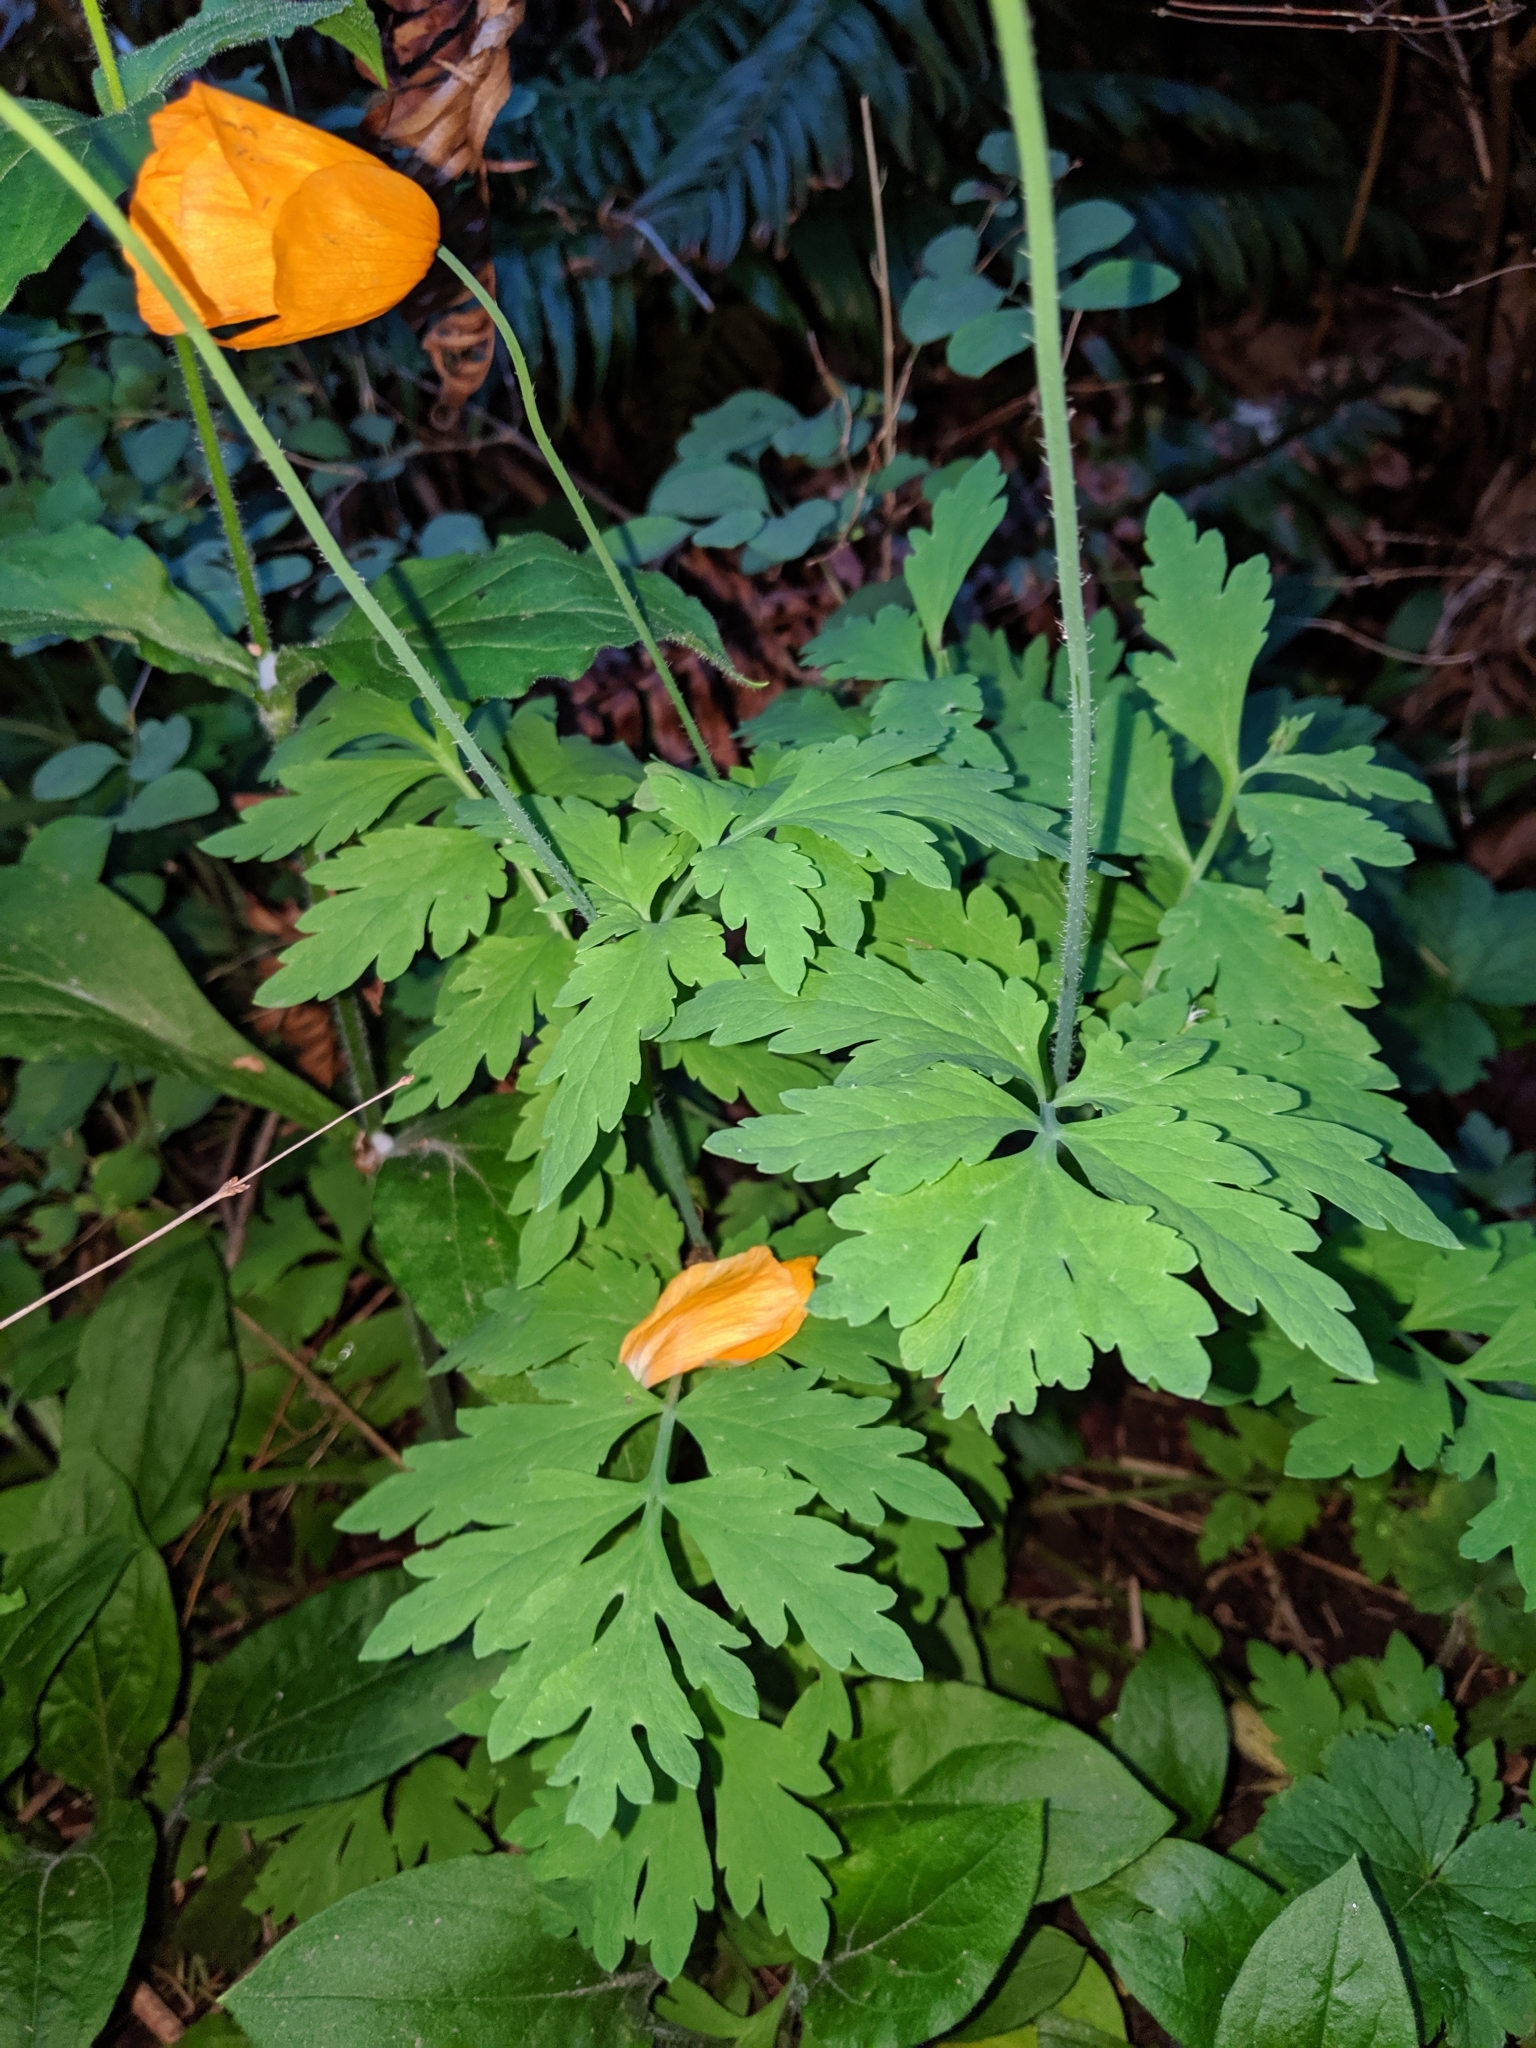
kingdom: Plantae
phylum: Tracheophyta
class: Magnoliopsida
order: Ranunculales
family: Papaveraceae
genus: Papaver
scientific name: Papaver cambricum
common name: Poppy
